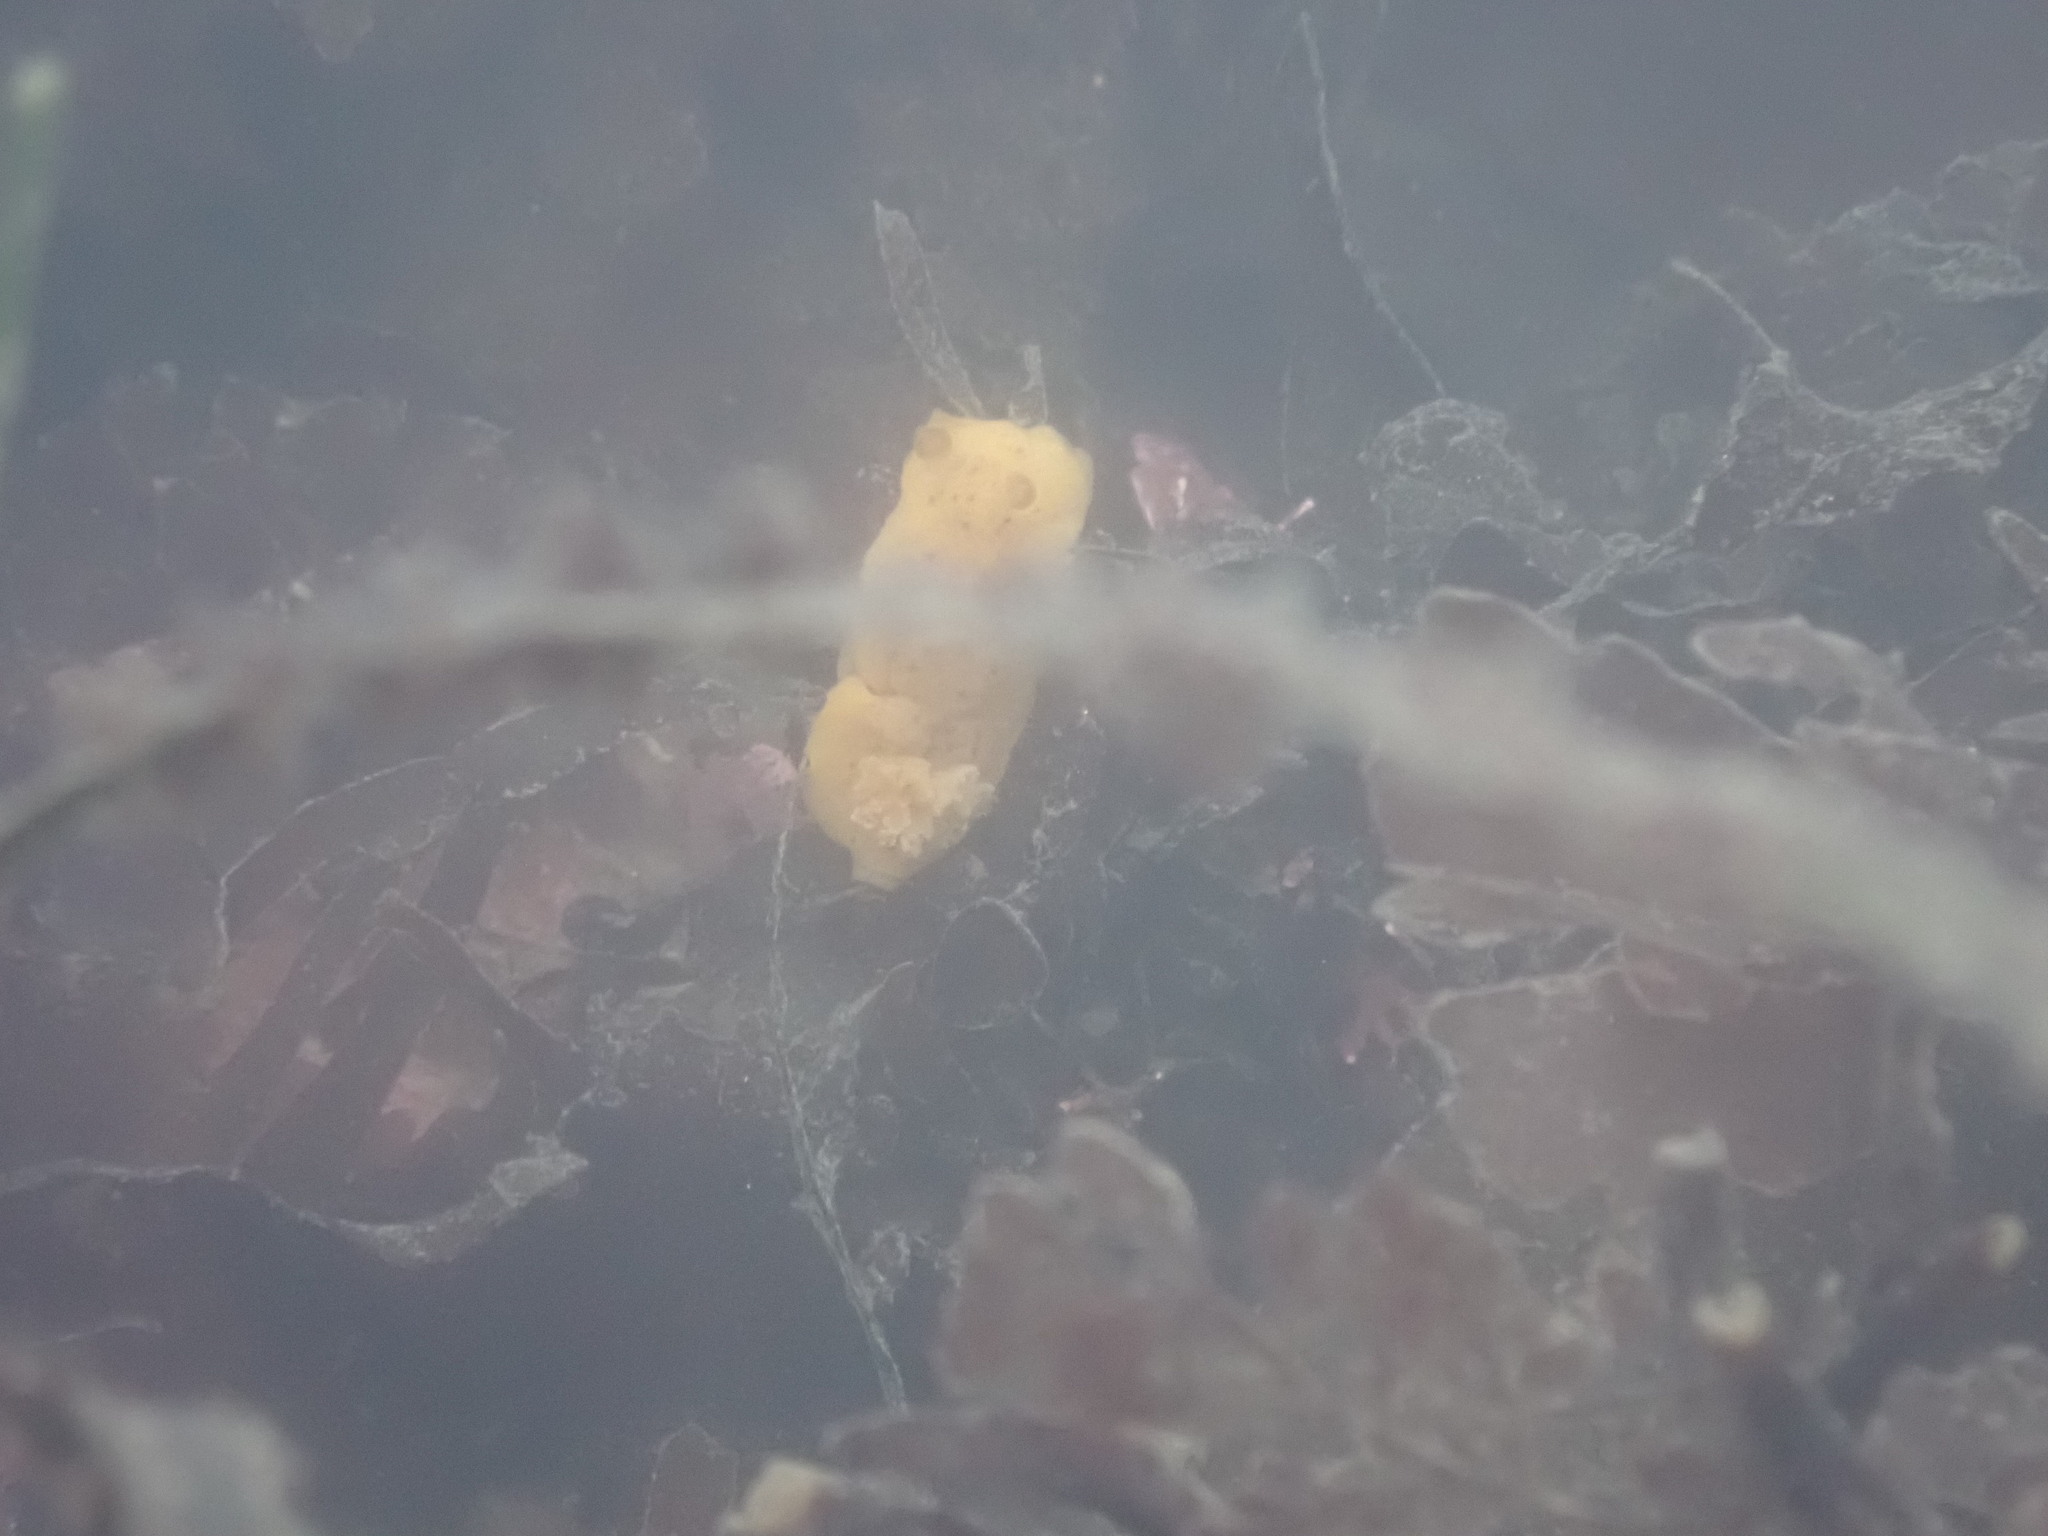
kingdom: Animalia
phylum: Mollusca
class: Gastropoda
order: Nudibranchia
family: Dorididae
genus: Doris
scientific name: Doris montereyensis
